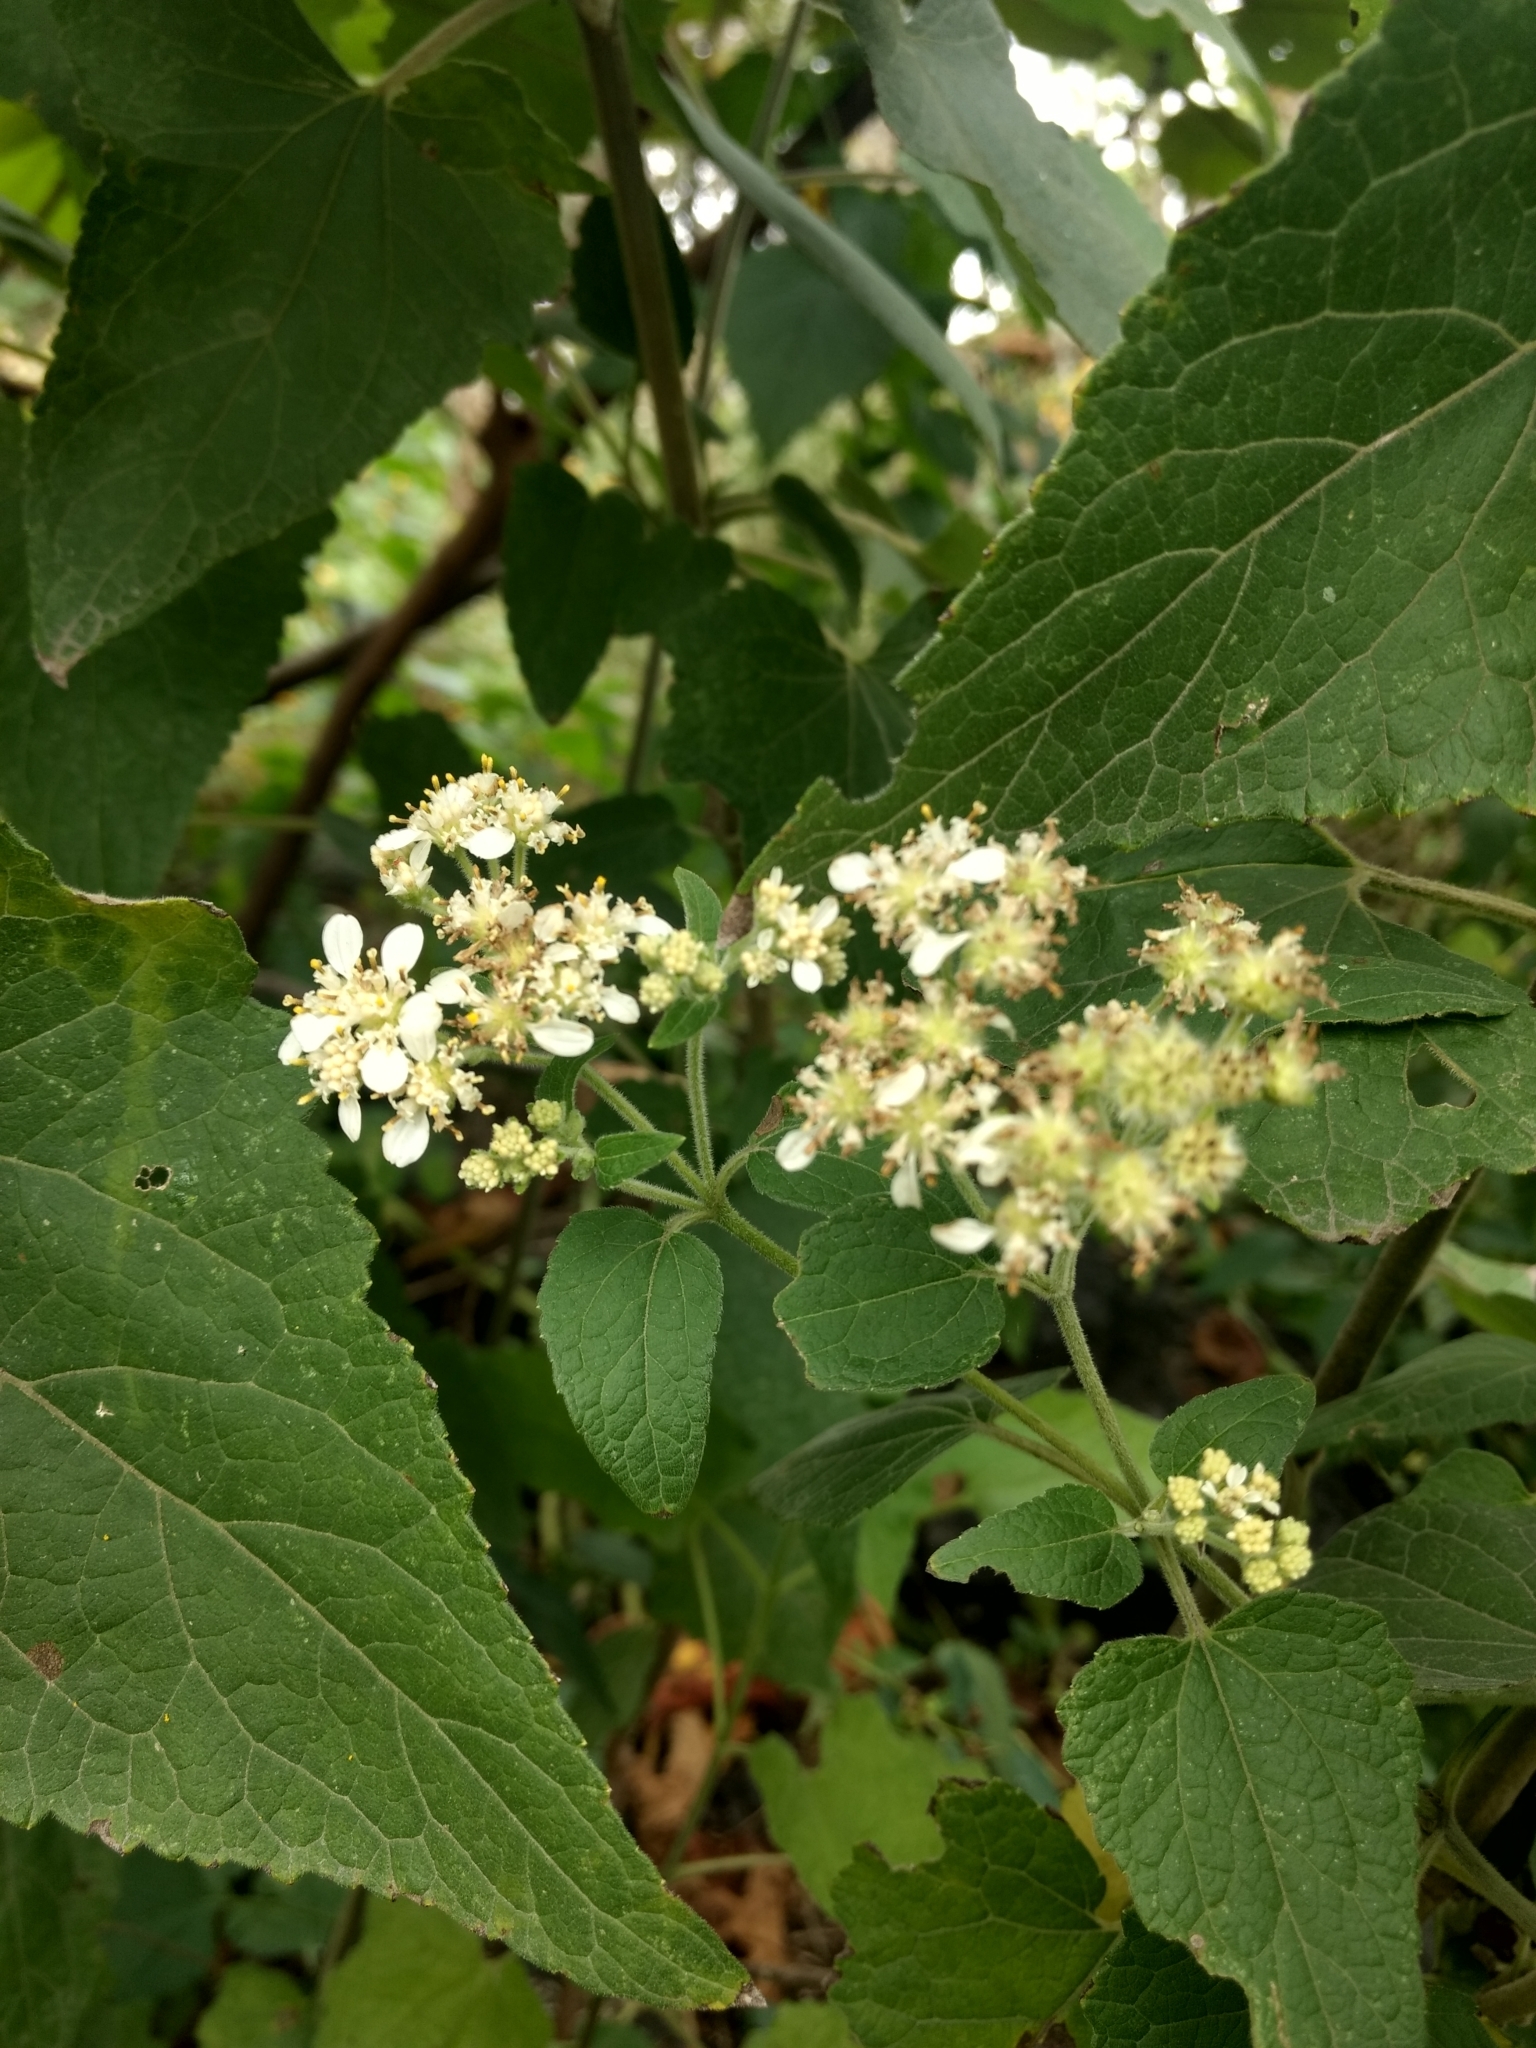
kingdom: Plantae
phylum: Tracheophyta
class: Magnoliopsida
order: Asterales
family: Asteraceae
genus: Montanoa
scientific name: Montanoa tomentosa
